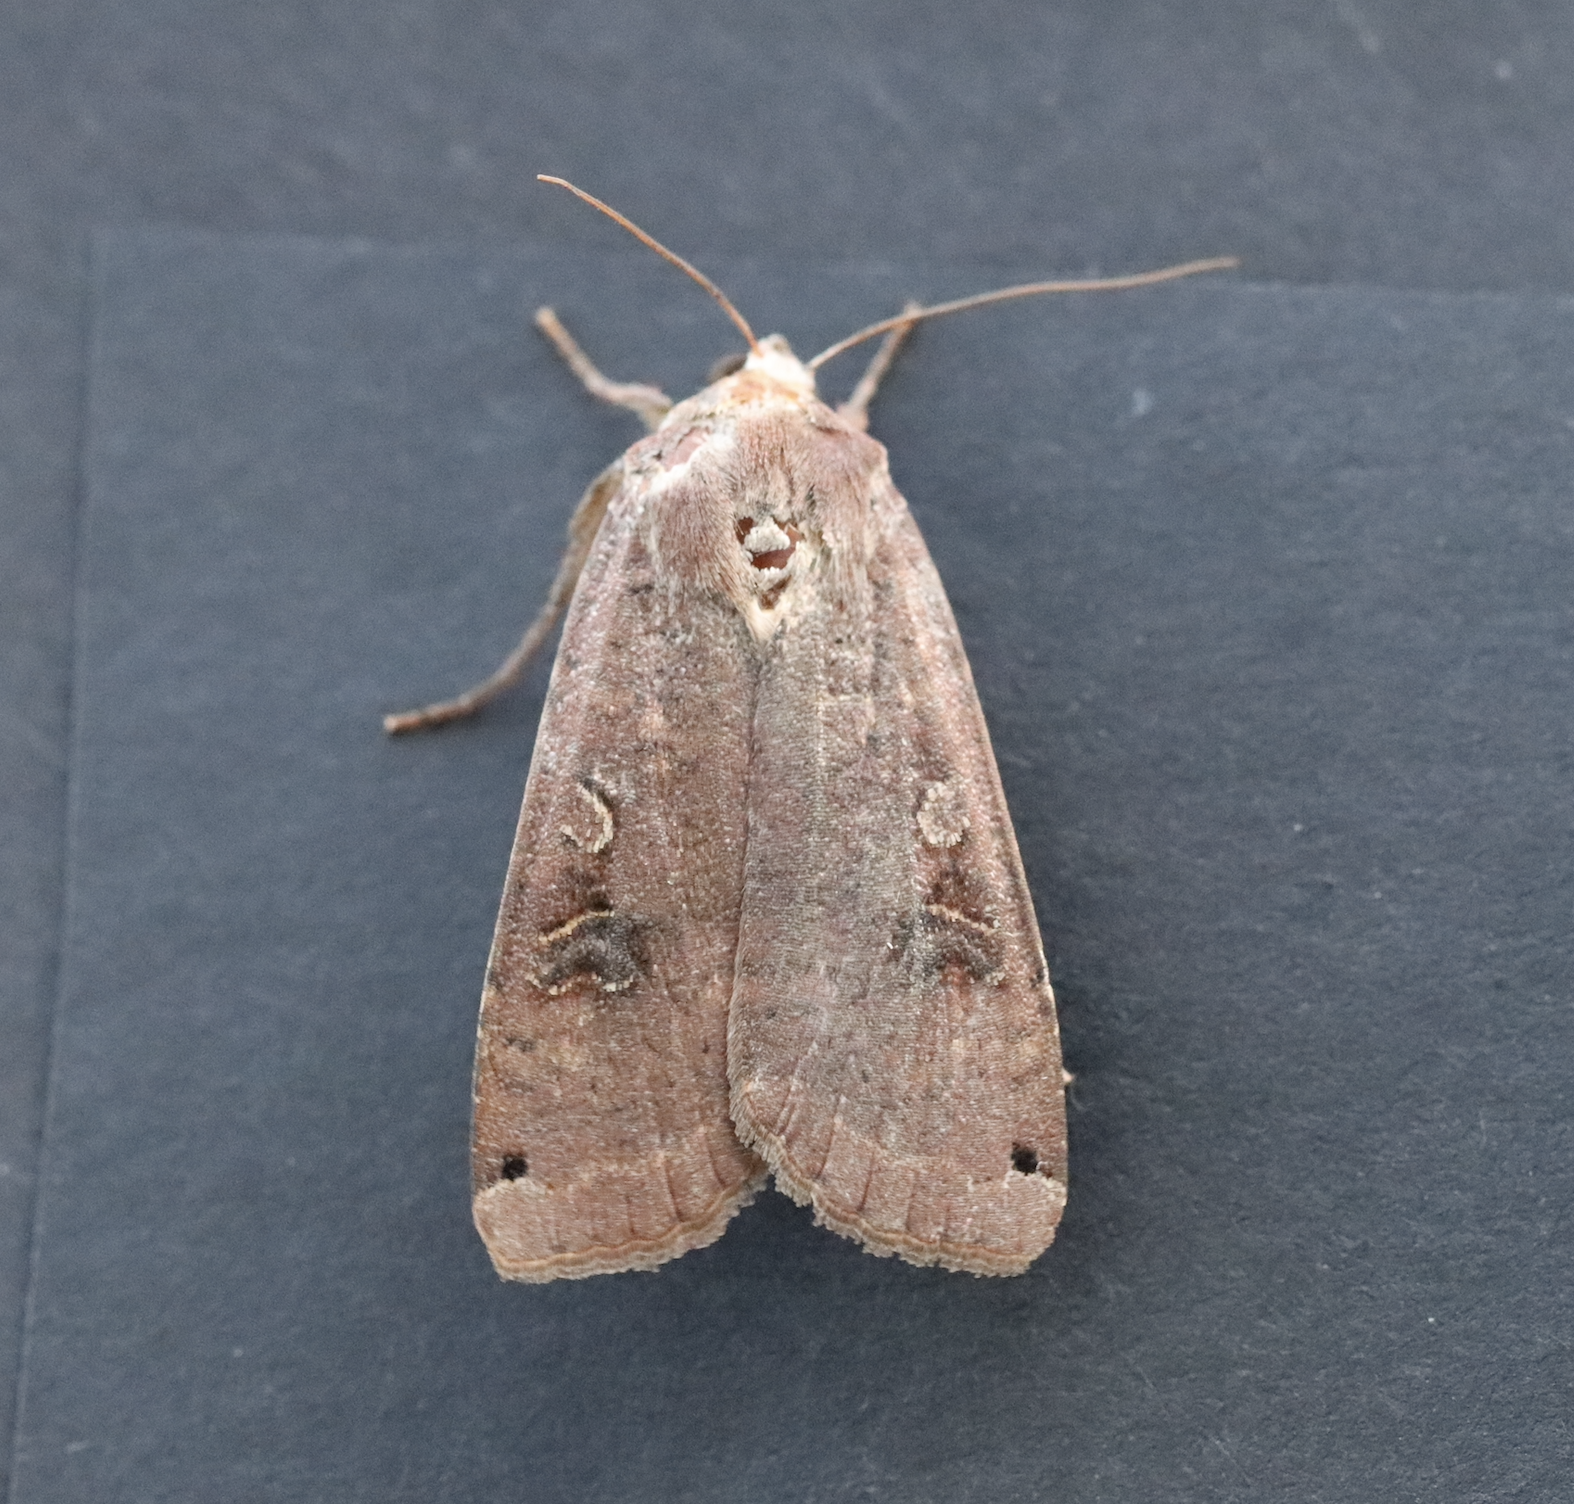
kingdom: Animalia
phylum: Arthropoda
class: Insecta
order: Lepidoptera
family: Noctuidae
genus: Noctua
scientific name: Noctua pronuba
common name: Large yellow underwing
